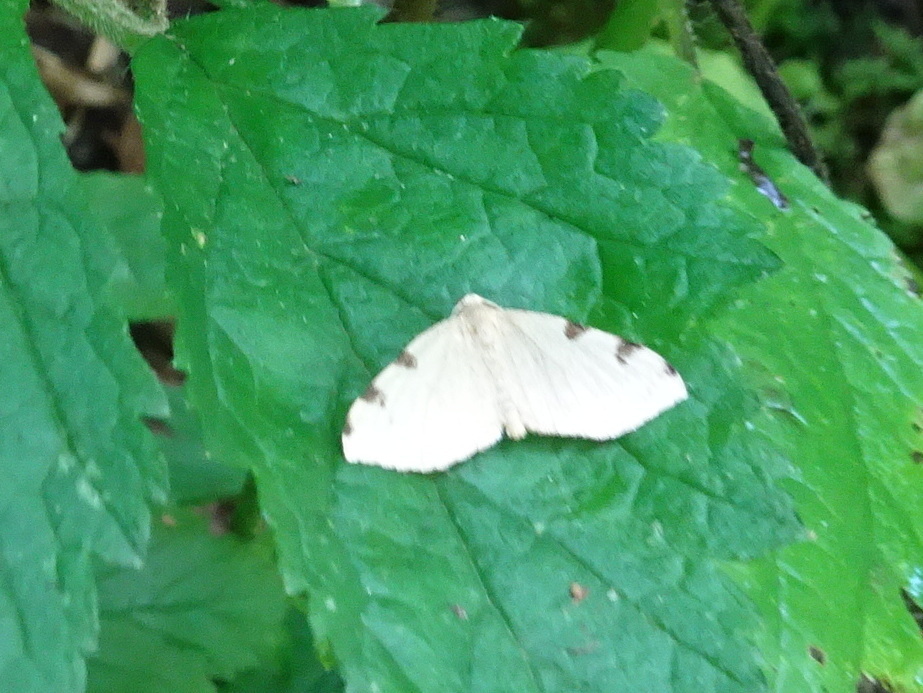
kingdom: Animalia
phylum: Arthropoda
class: Insecta
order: Lepidoptera
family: Geometridae
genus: Heterophleps
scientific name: Heterophleps triguttaria
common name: Three-spotted fillip
